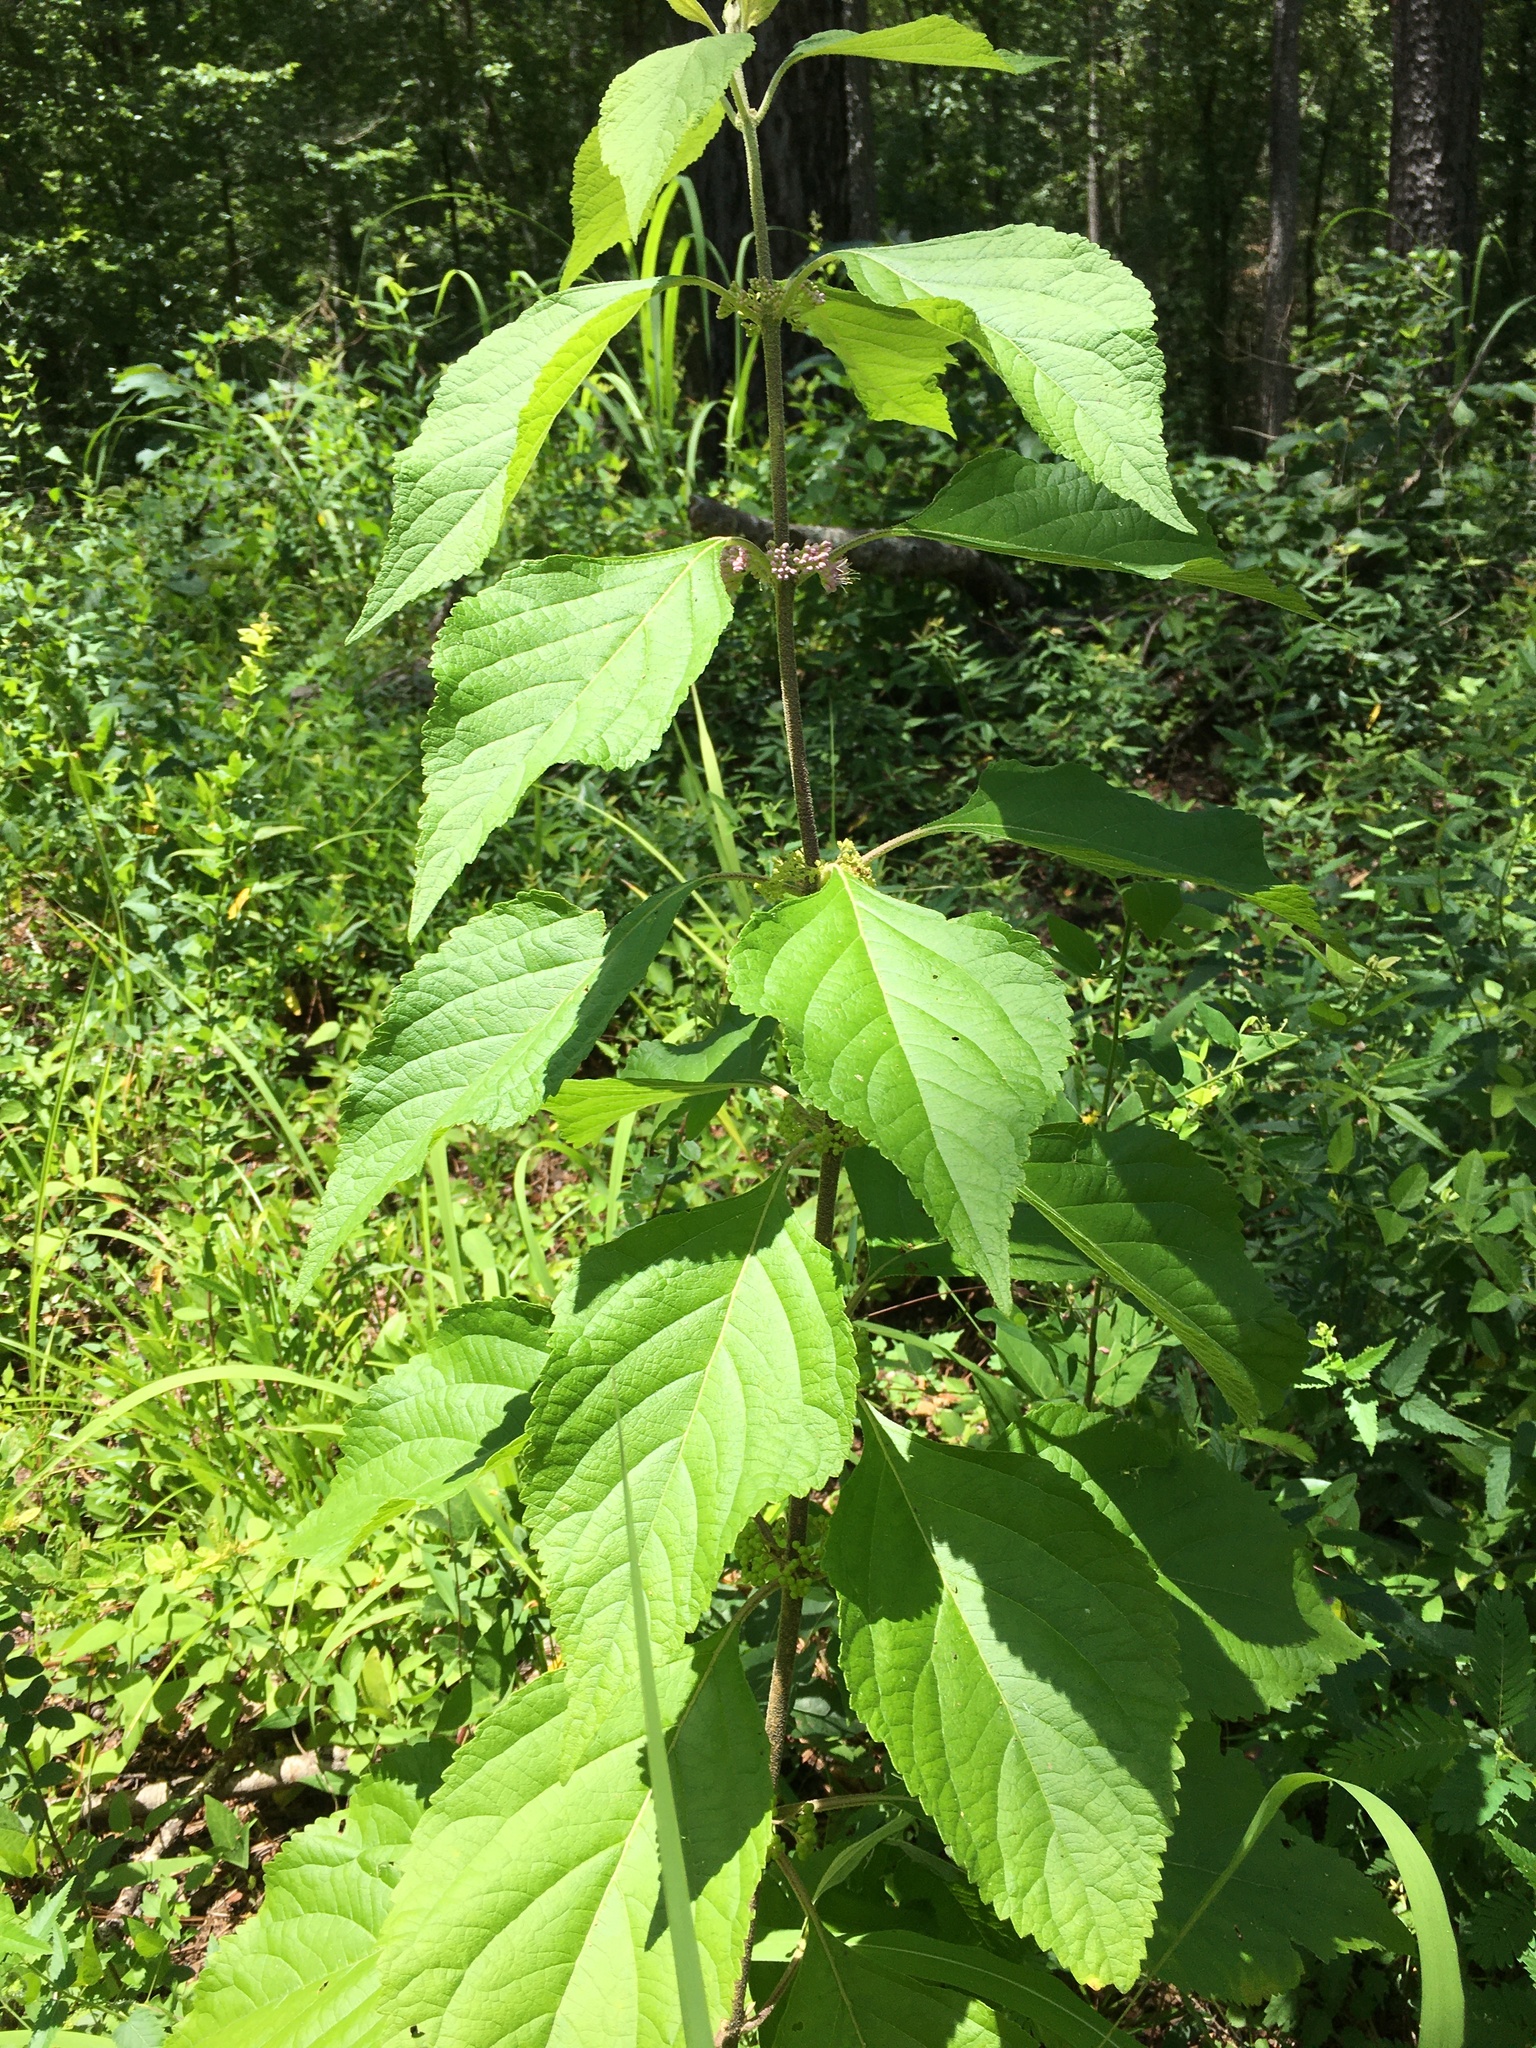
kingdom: Plantae
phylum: Tracheophyta
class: Magnoliopsida
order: Lamiales
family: Lamiaceae
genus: Callicarpa
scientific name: Callicarpa americana
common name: American beautyberry
